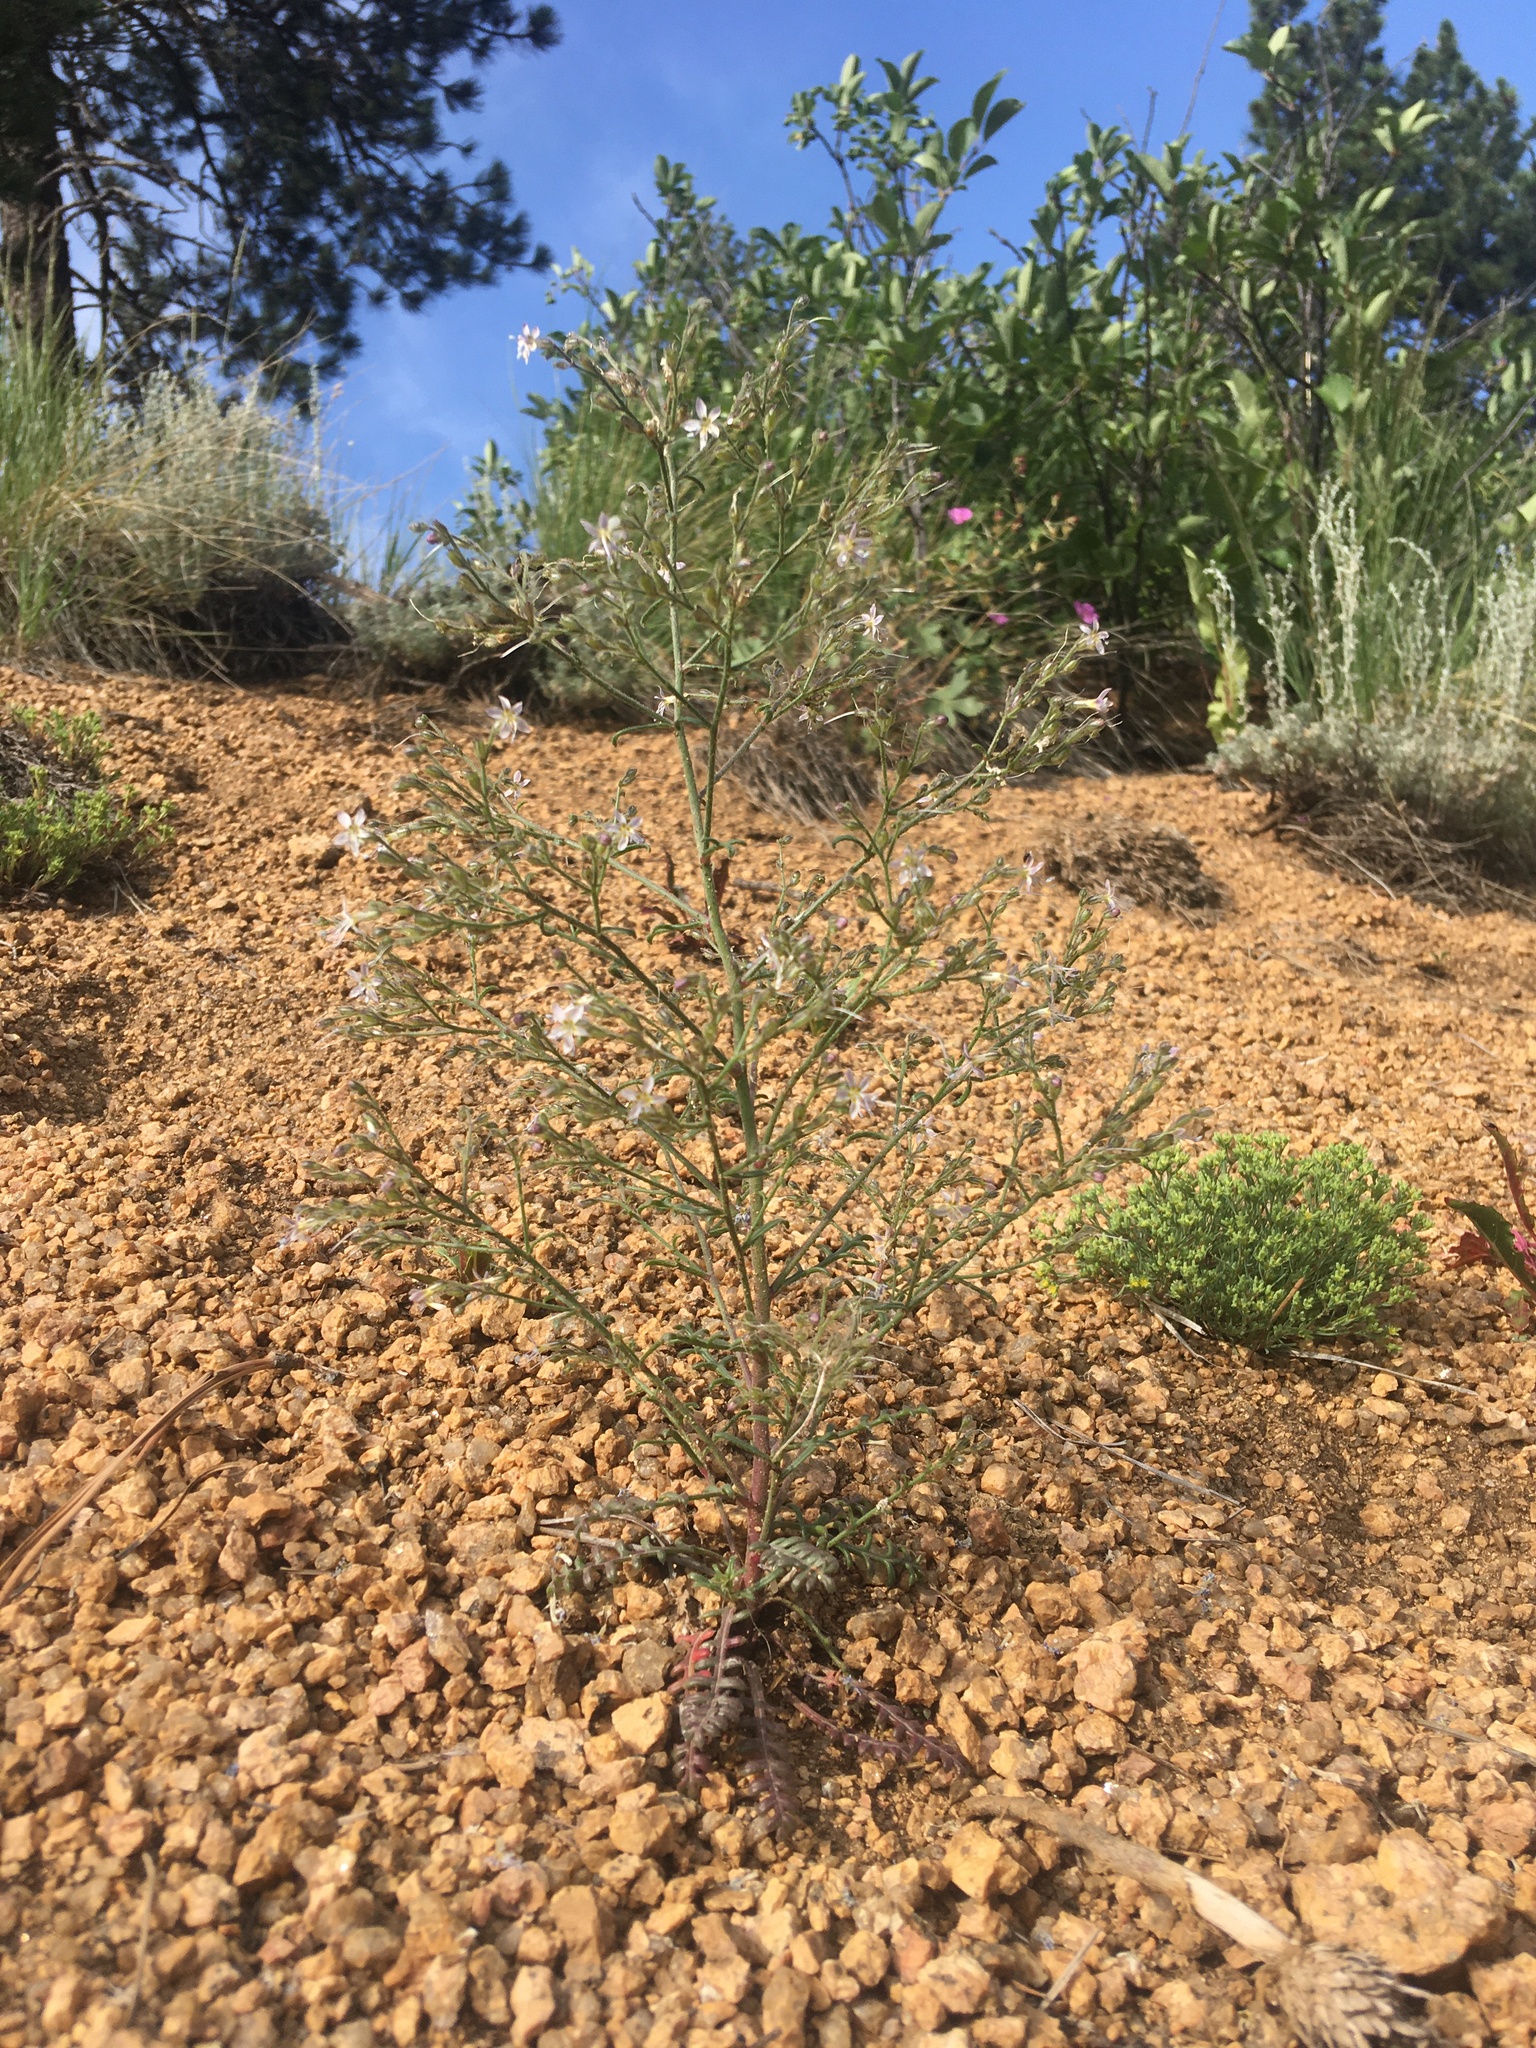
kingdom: Plantae
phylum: Tracheophyta
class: Magnoliopsida
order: Ericales
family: Polemoniaceae
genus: Aliciella
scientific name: Aliciella pinnatifida
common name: Sticky gilia
